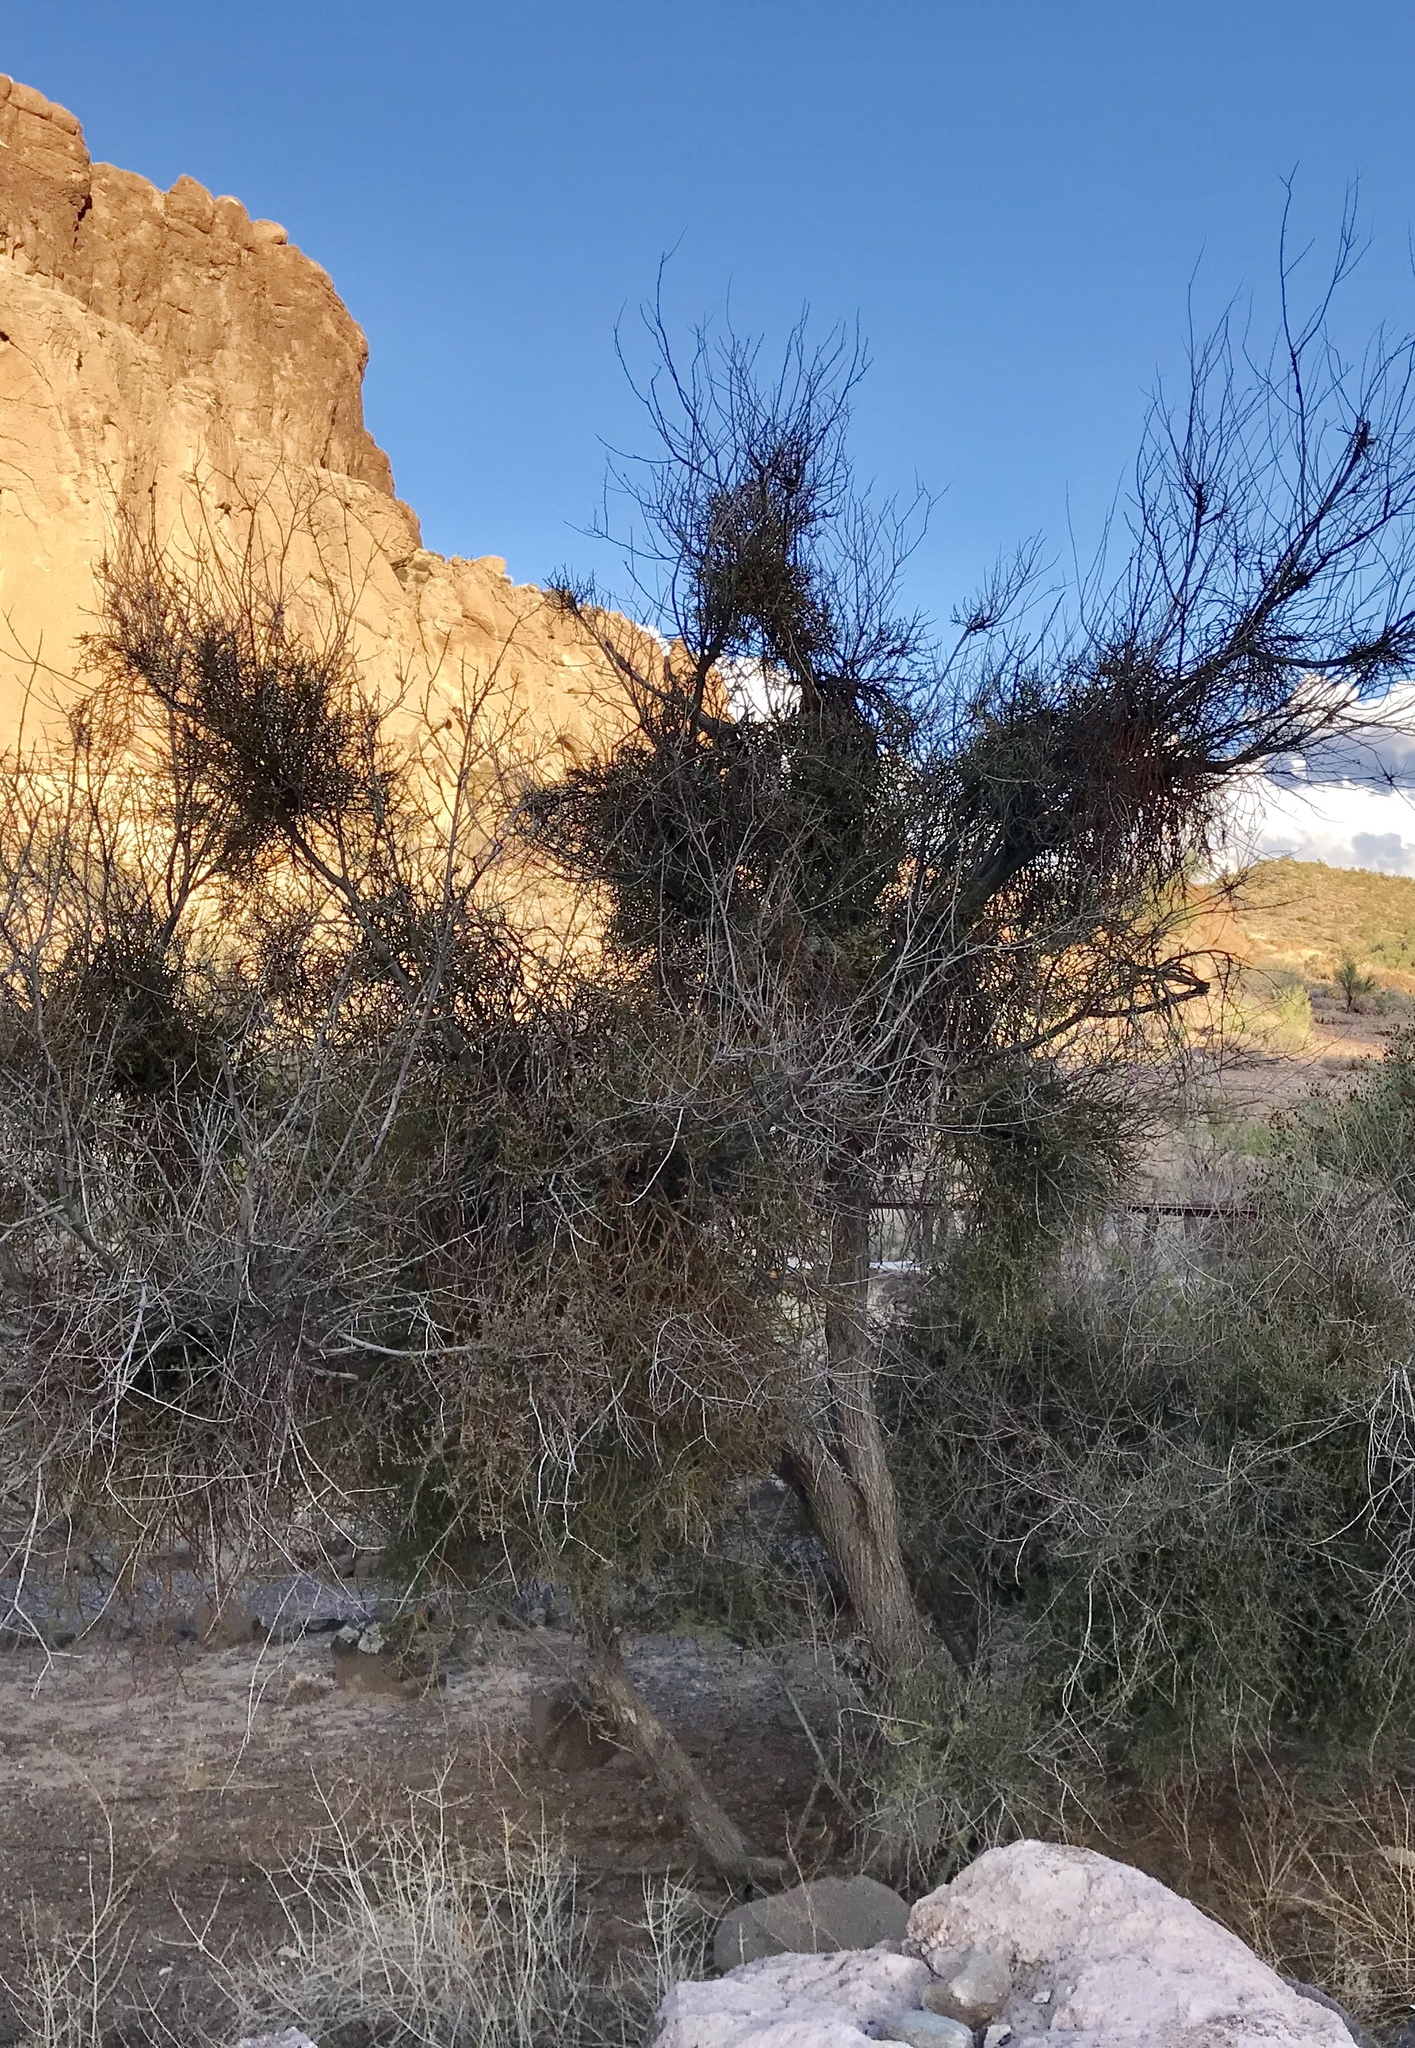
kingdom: Plantae
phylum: Tracheophyta
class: Magnoliopsida
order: Celastrales
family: Celastraceae
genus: Canotia
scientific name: Canotia holacantha
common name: Crucifixion thorns
